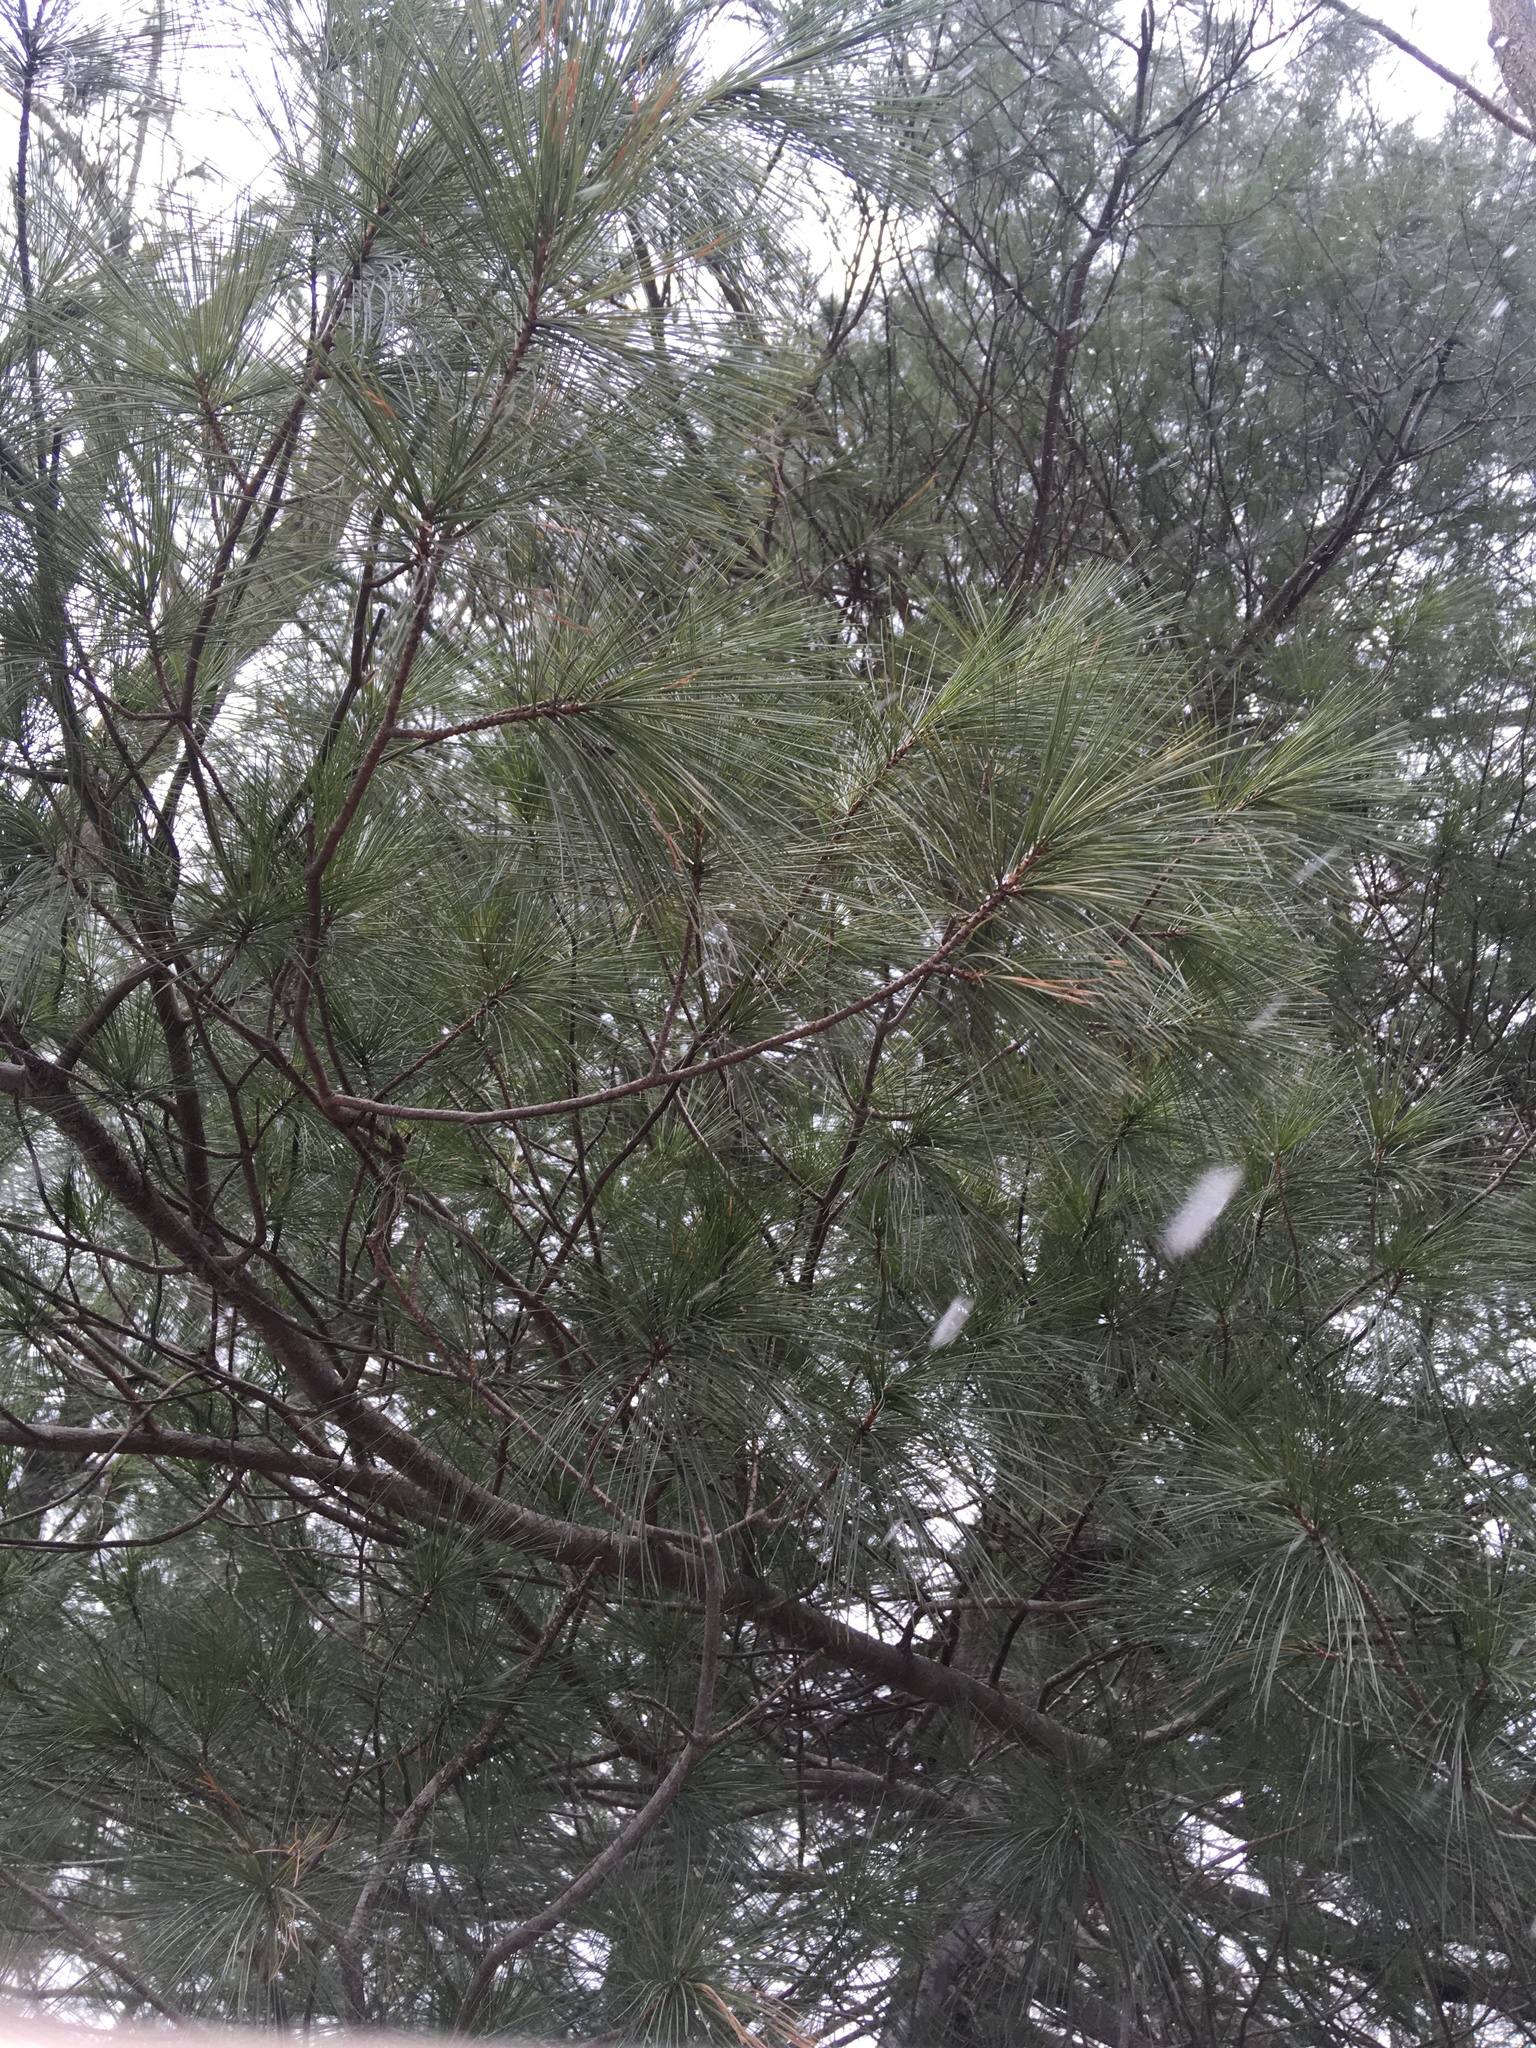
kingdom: Plantae
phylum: Tracheophyta
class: Pinopsida
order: Pinales
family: Pinaceae
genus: Pinus
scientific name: Pinus strobus
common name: Weymouth pine
